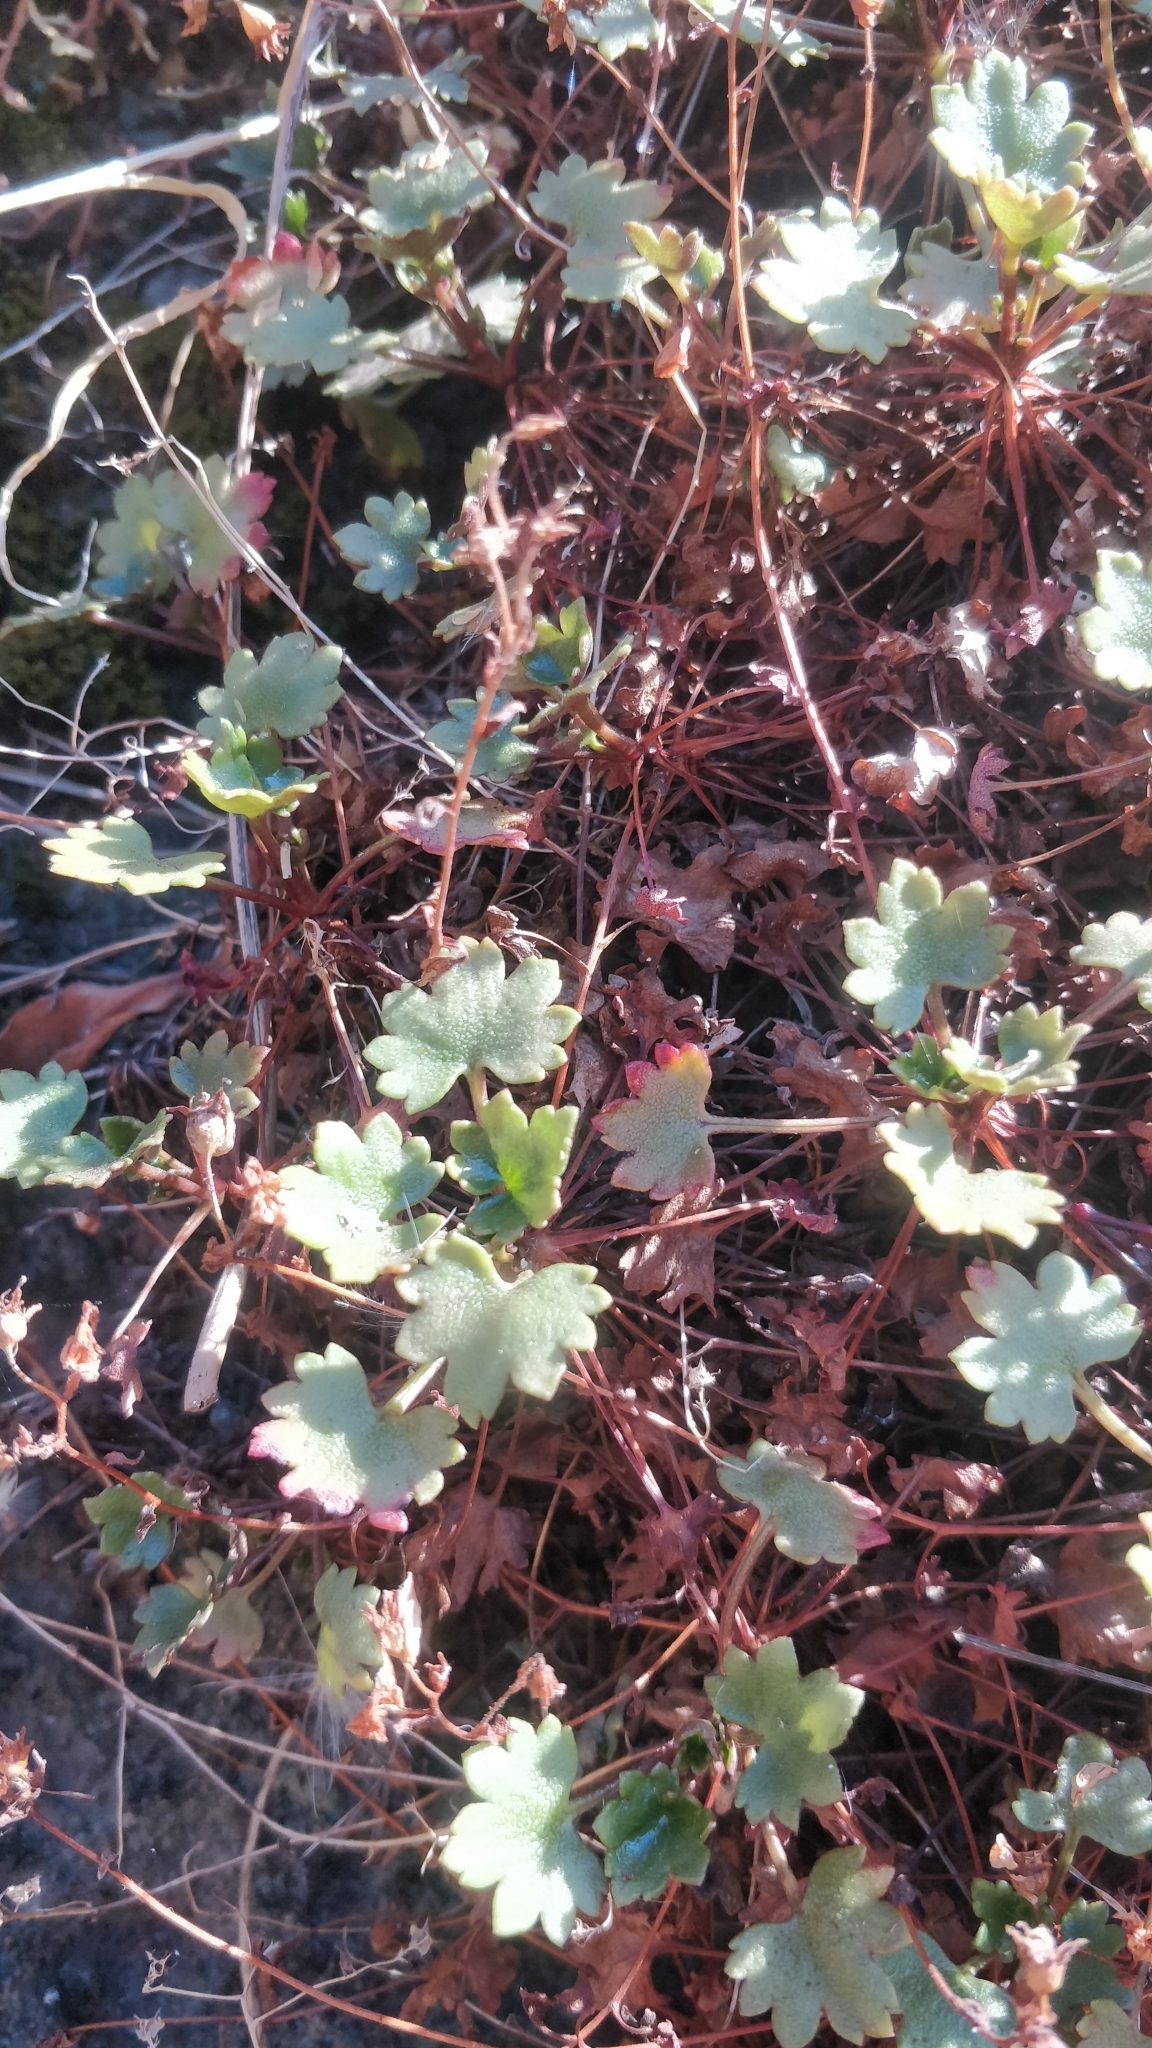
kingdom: Plantae
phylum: Tracheophyta
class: Magnoliopsida
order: Saxifragales
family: Saxifragaceae
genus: Saxifraga
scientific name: Saxifraga maderensis
